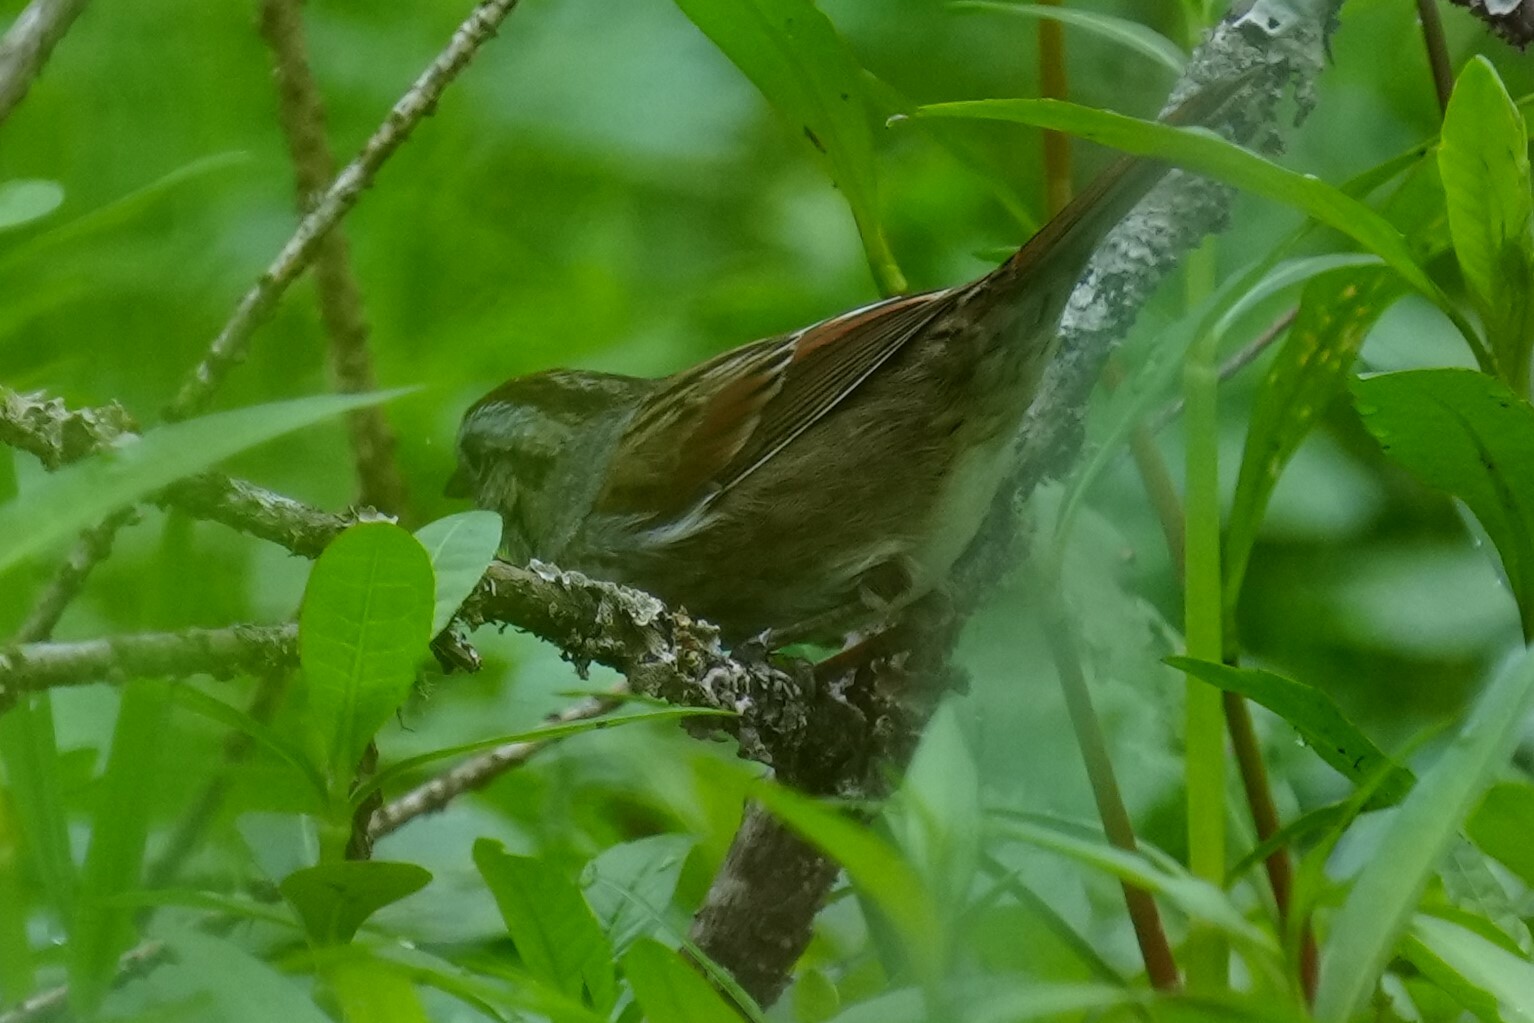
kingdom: Animalia
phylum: Chordata
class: Aves
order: Passeriformes
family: Passerellidae
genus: Melospiza
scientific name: Melospiza georgiana
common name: Swamp sparrow
